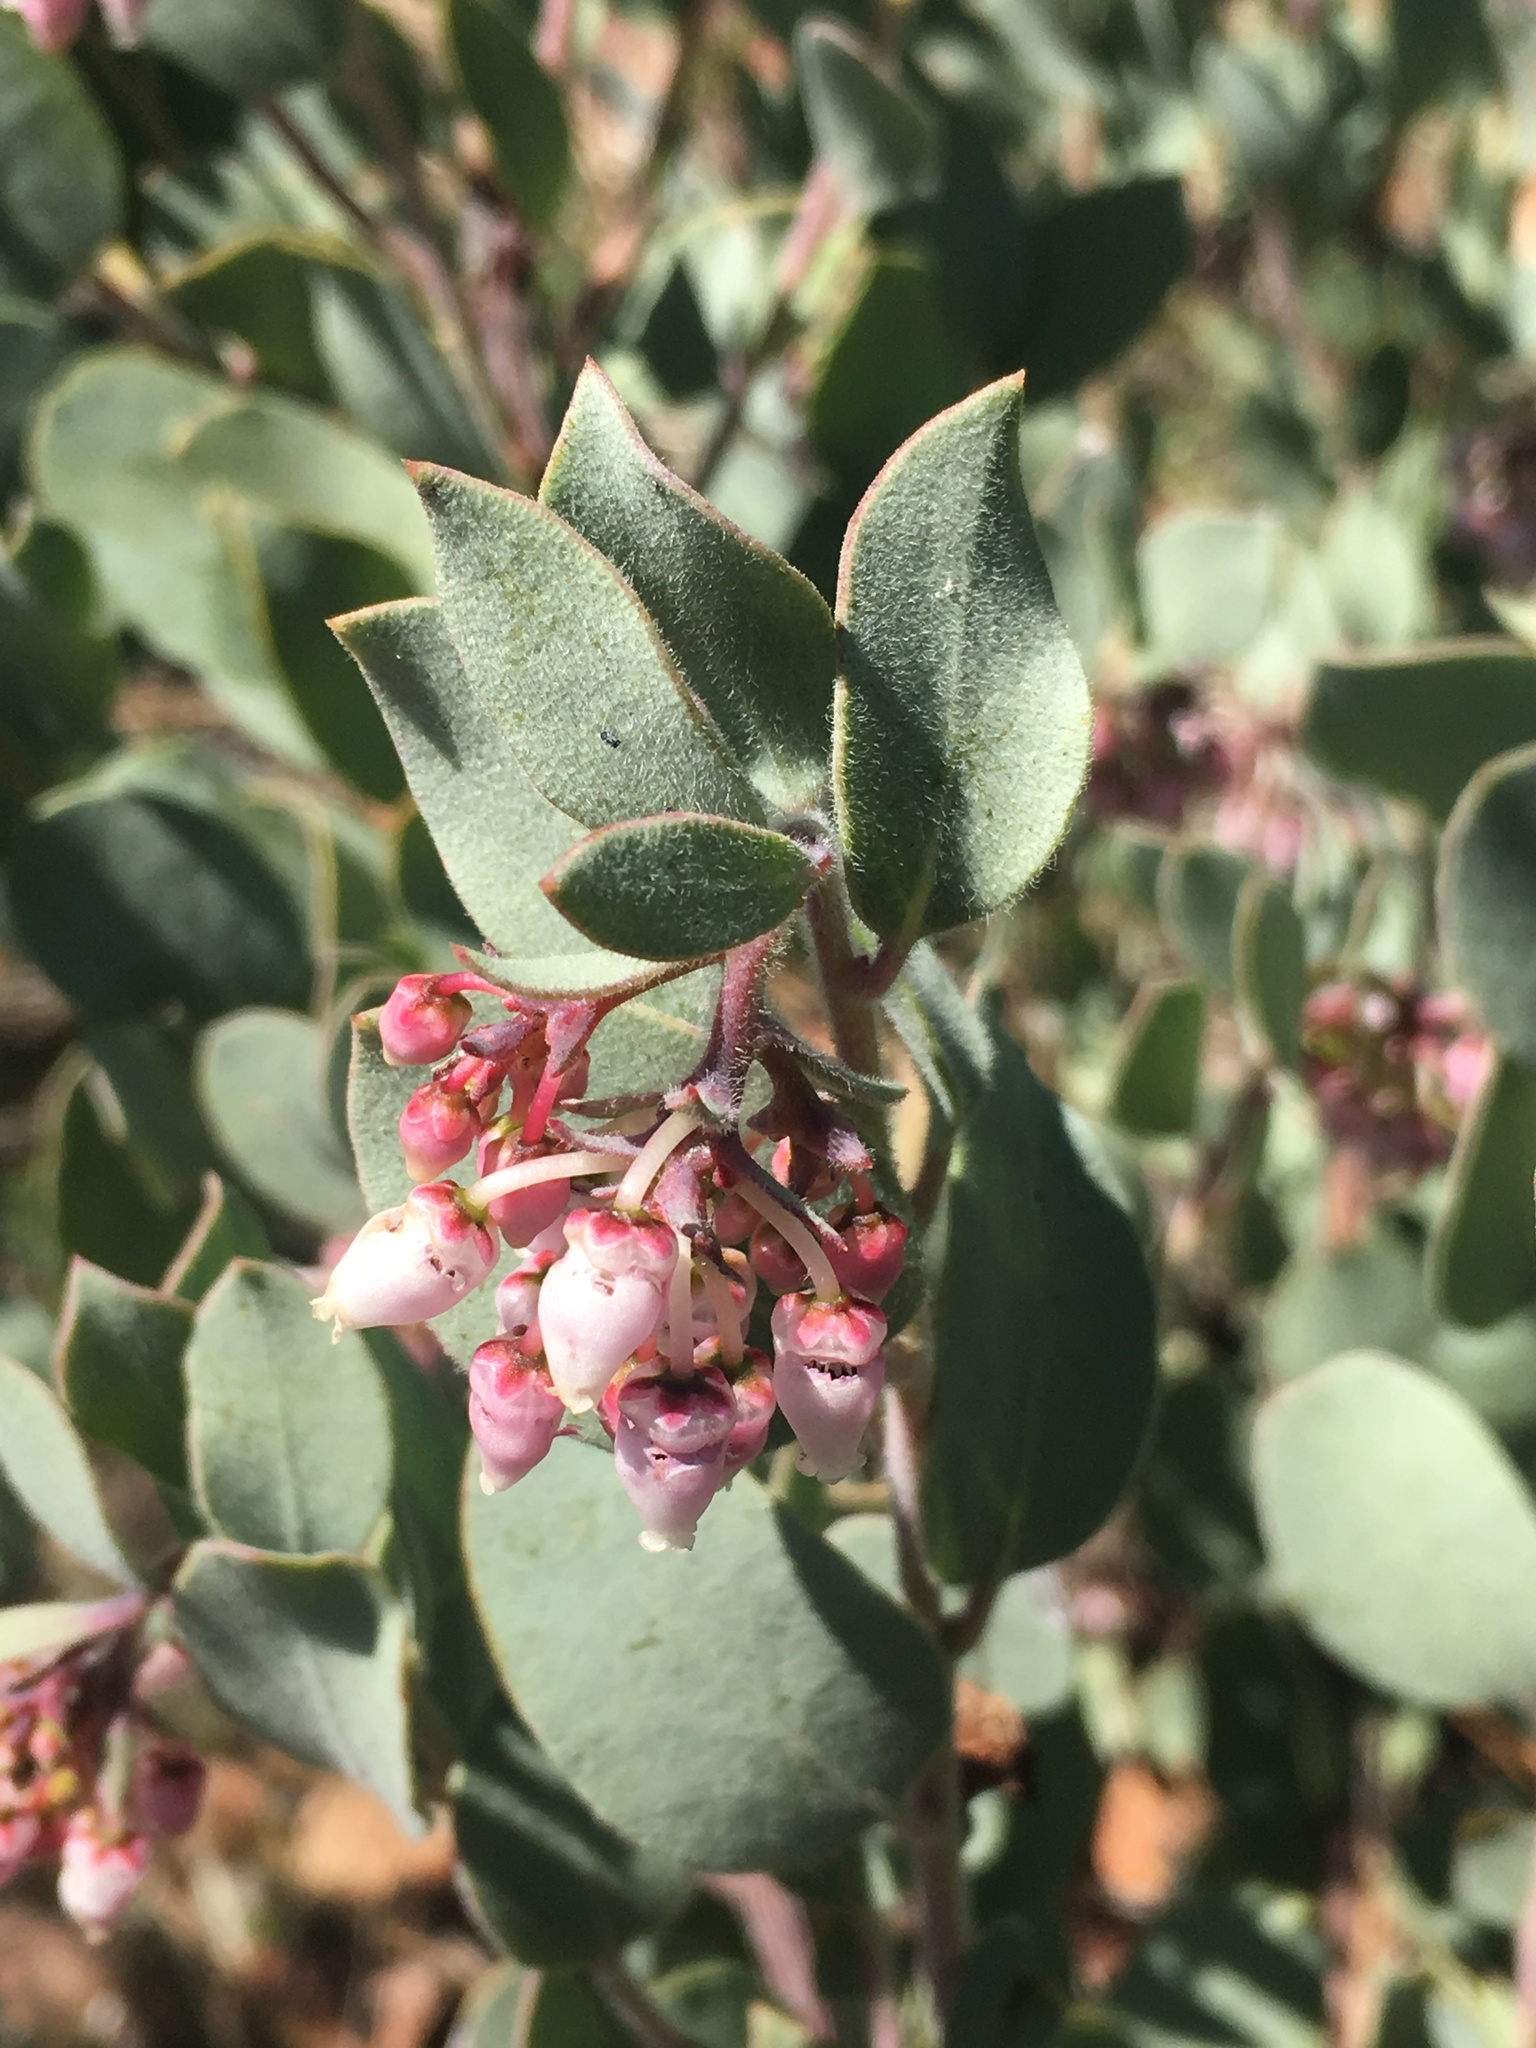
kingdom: Plantae
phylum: Tracheophyta
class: Magnoliopsida
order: Ericales
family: Ericaceae
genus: Arctostaphylos
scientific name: Arctostaphylos nissenana
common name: Nissenan manzanita
